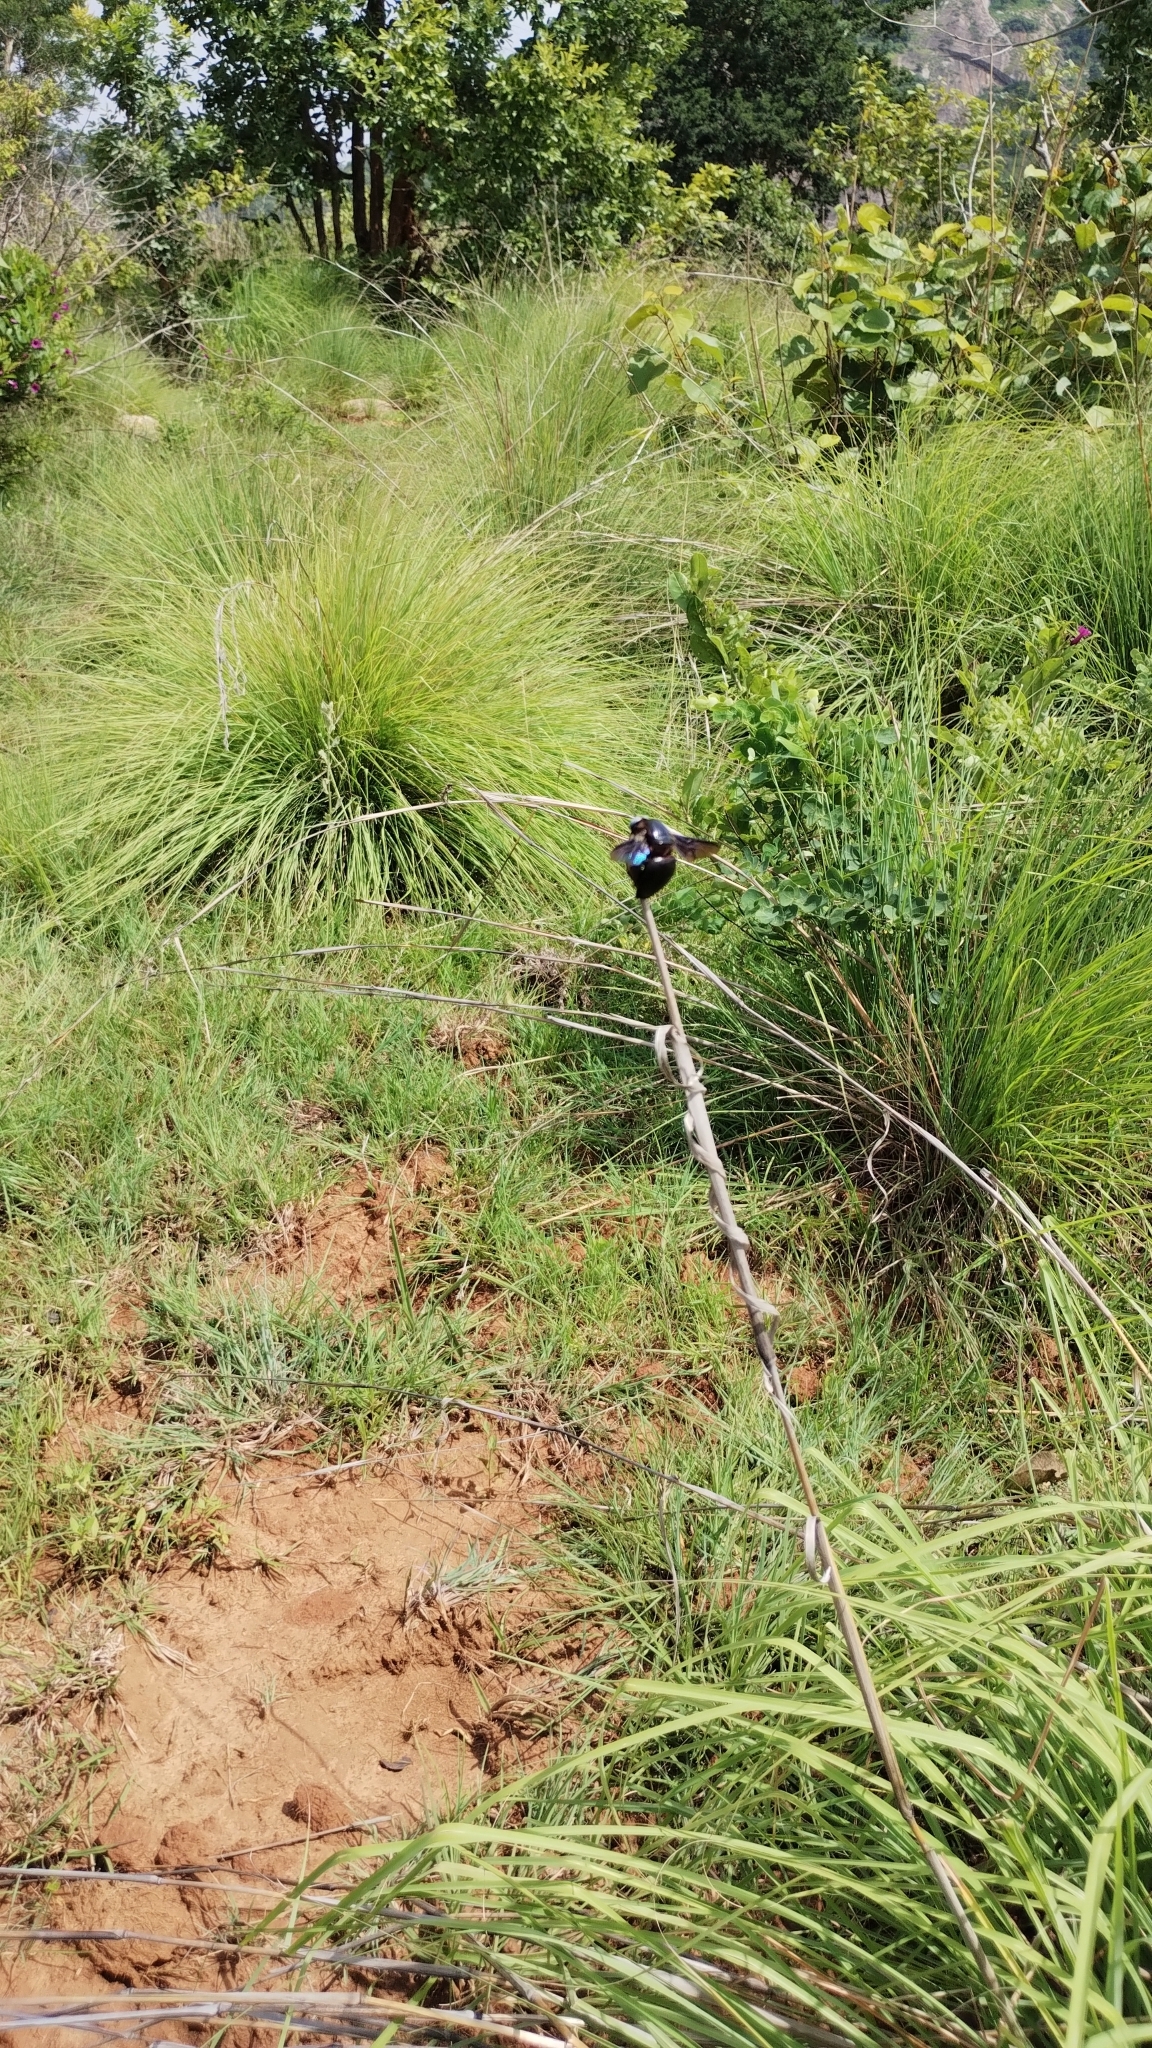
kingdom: Animalia
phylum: Arthropoda
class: Insecta
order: Hymenoptera
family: Apidae
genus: Xylocopa
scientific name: Xylocopa tenuiscapa
